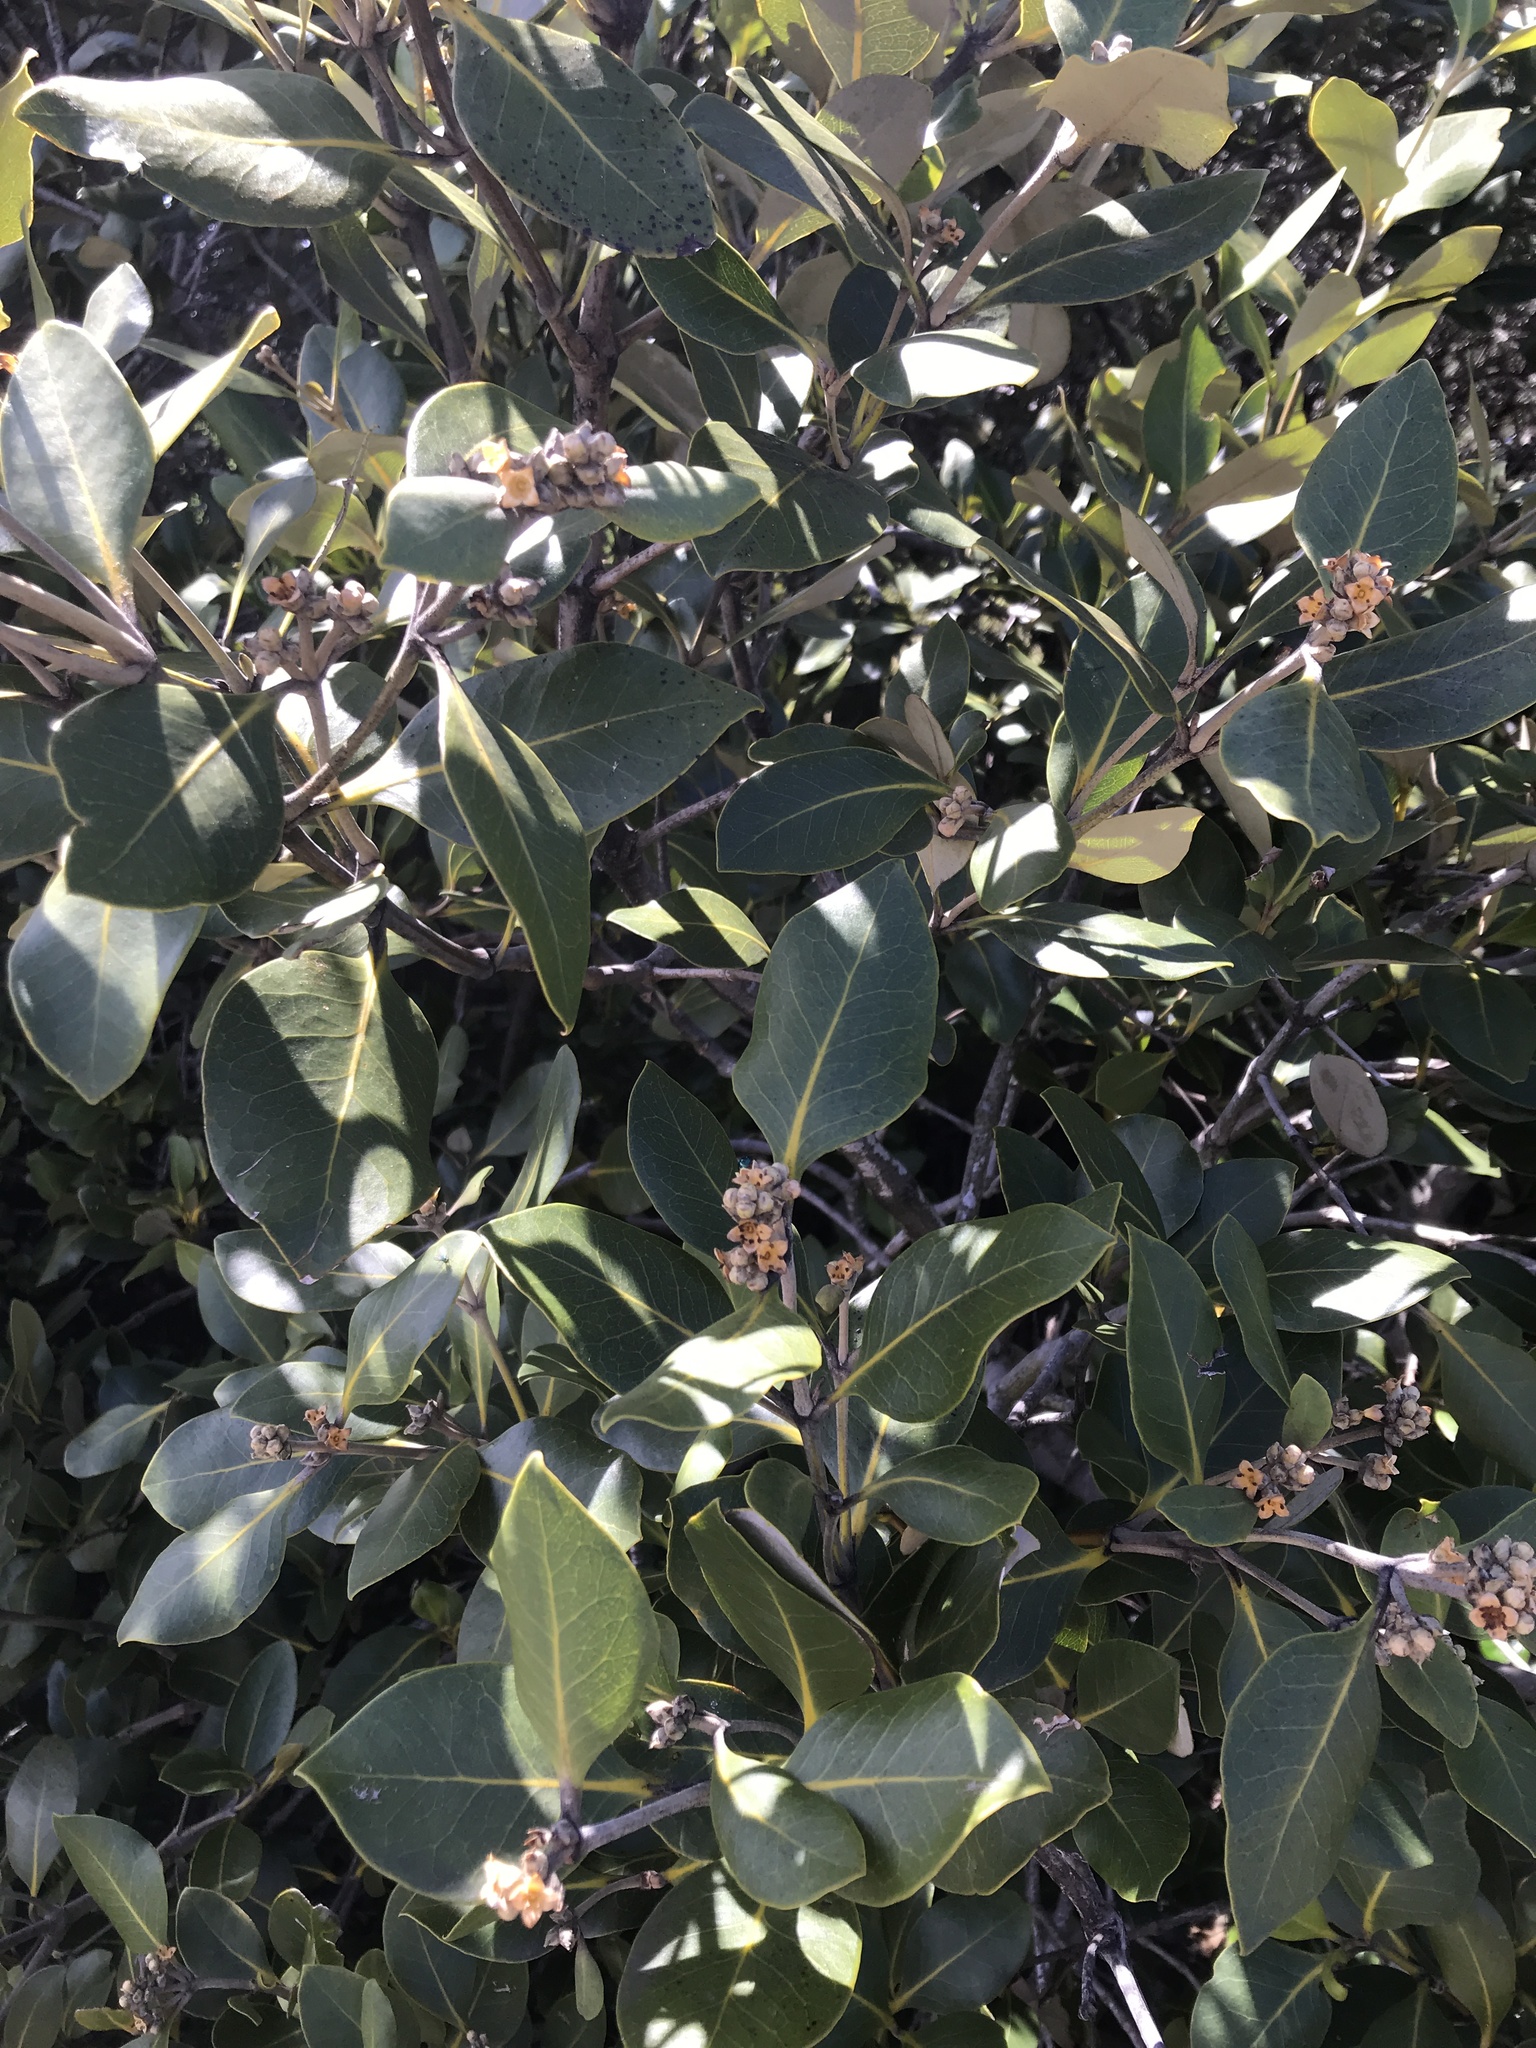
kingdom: Plantae
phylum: Tracheophyta
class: Magnoliopsida
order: Lamiales
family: Acanthaceae
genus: Avicennia
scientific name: Avicennia marina
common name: Gray mangrove
